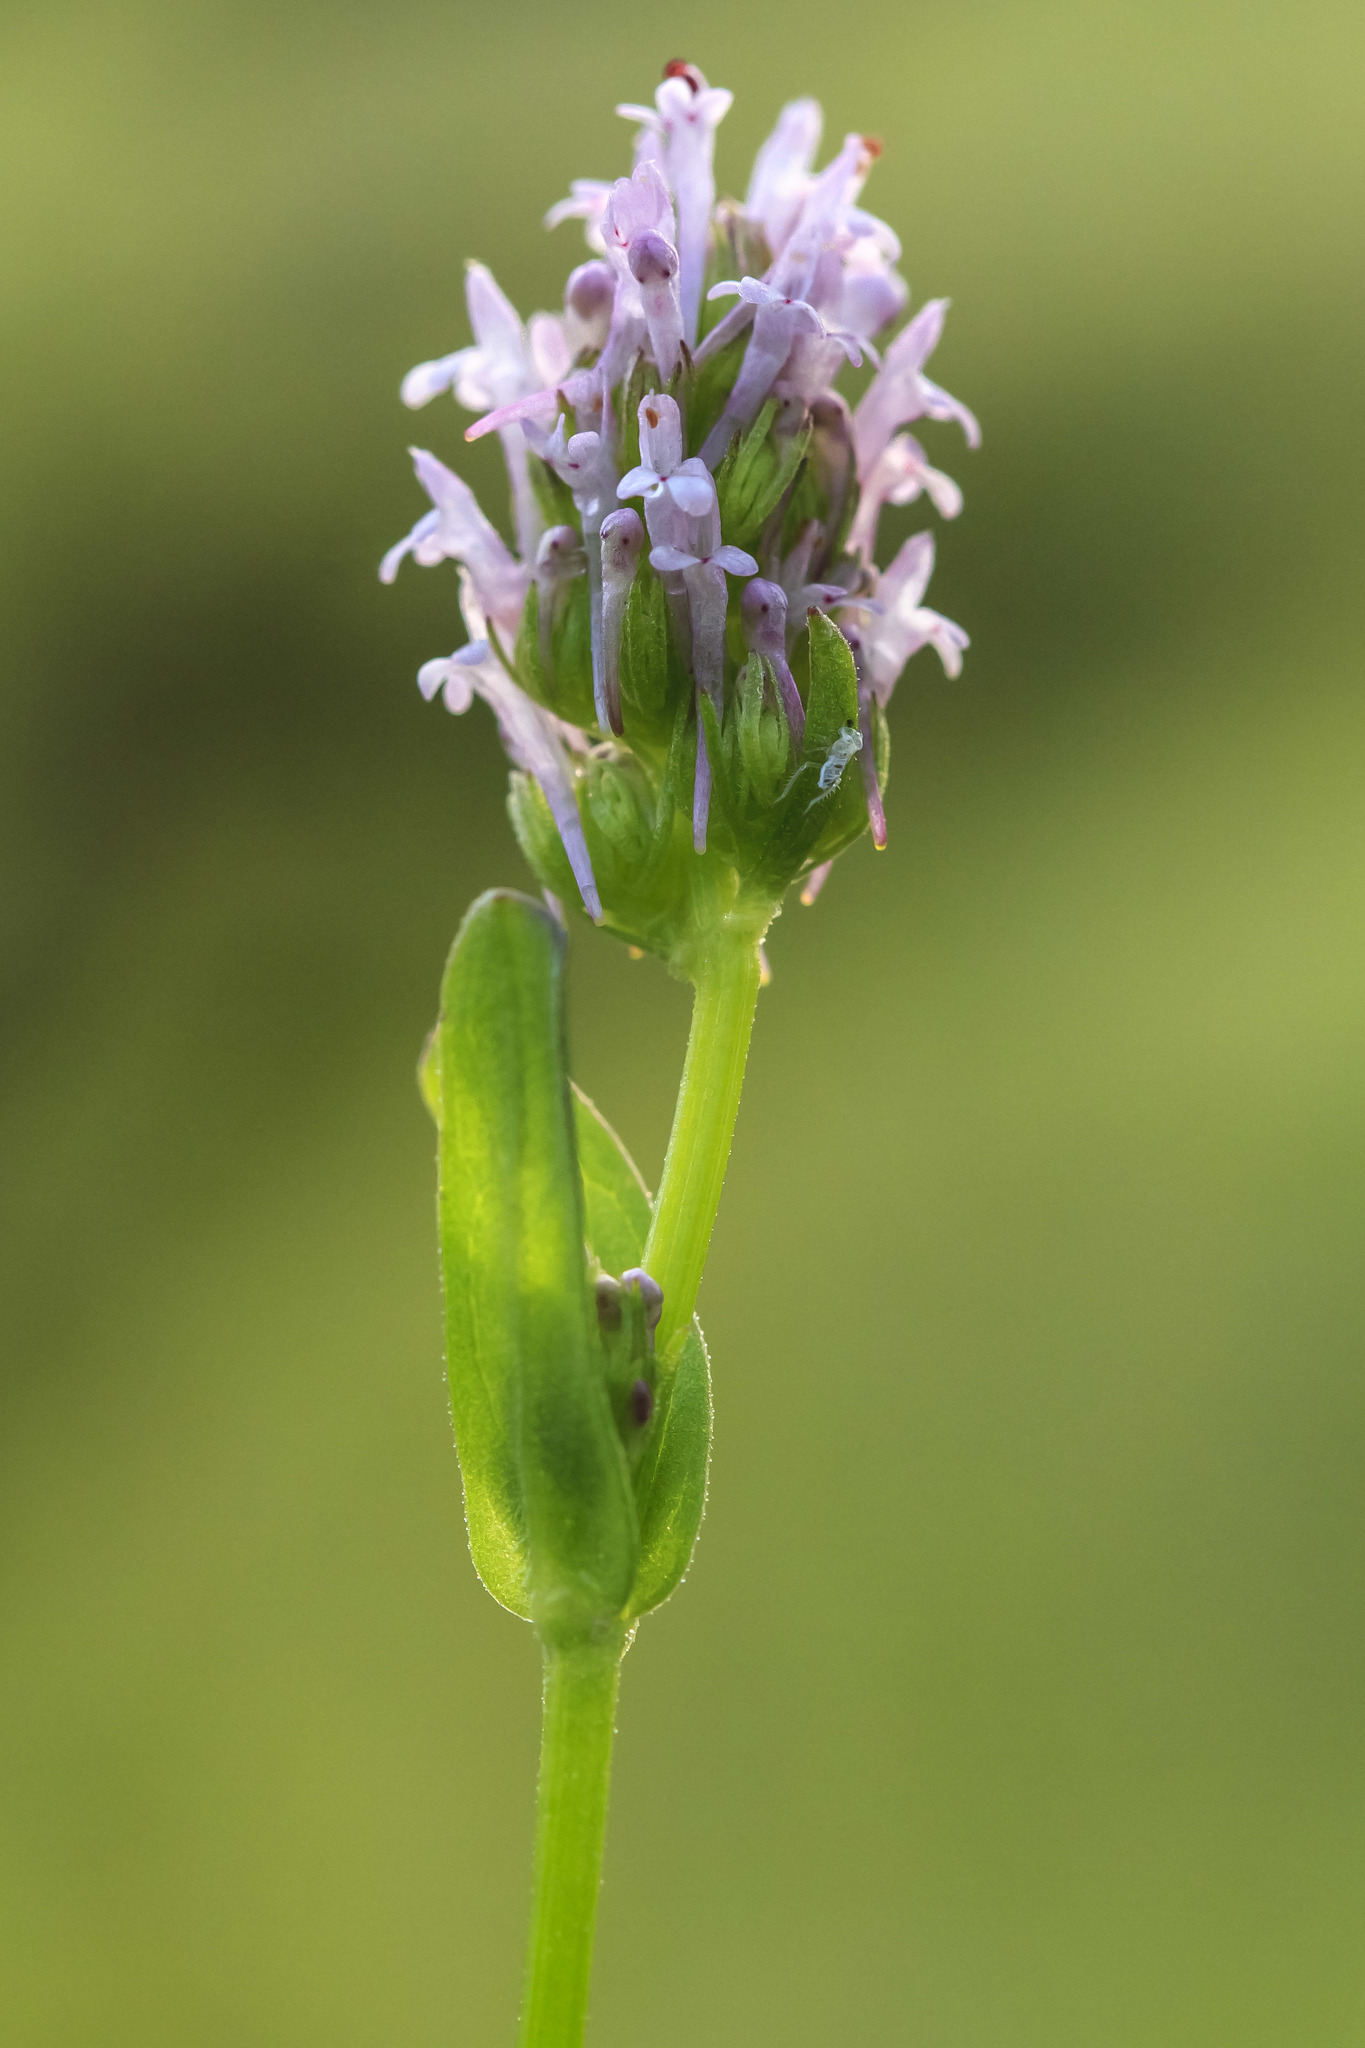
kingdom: Plantae
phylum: Tracheophyta
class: Magnoliopsida
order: Dipsacales
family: Caprifoliaceae
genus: Plectritis
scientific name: Plectritis ciliosa
